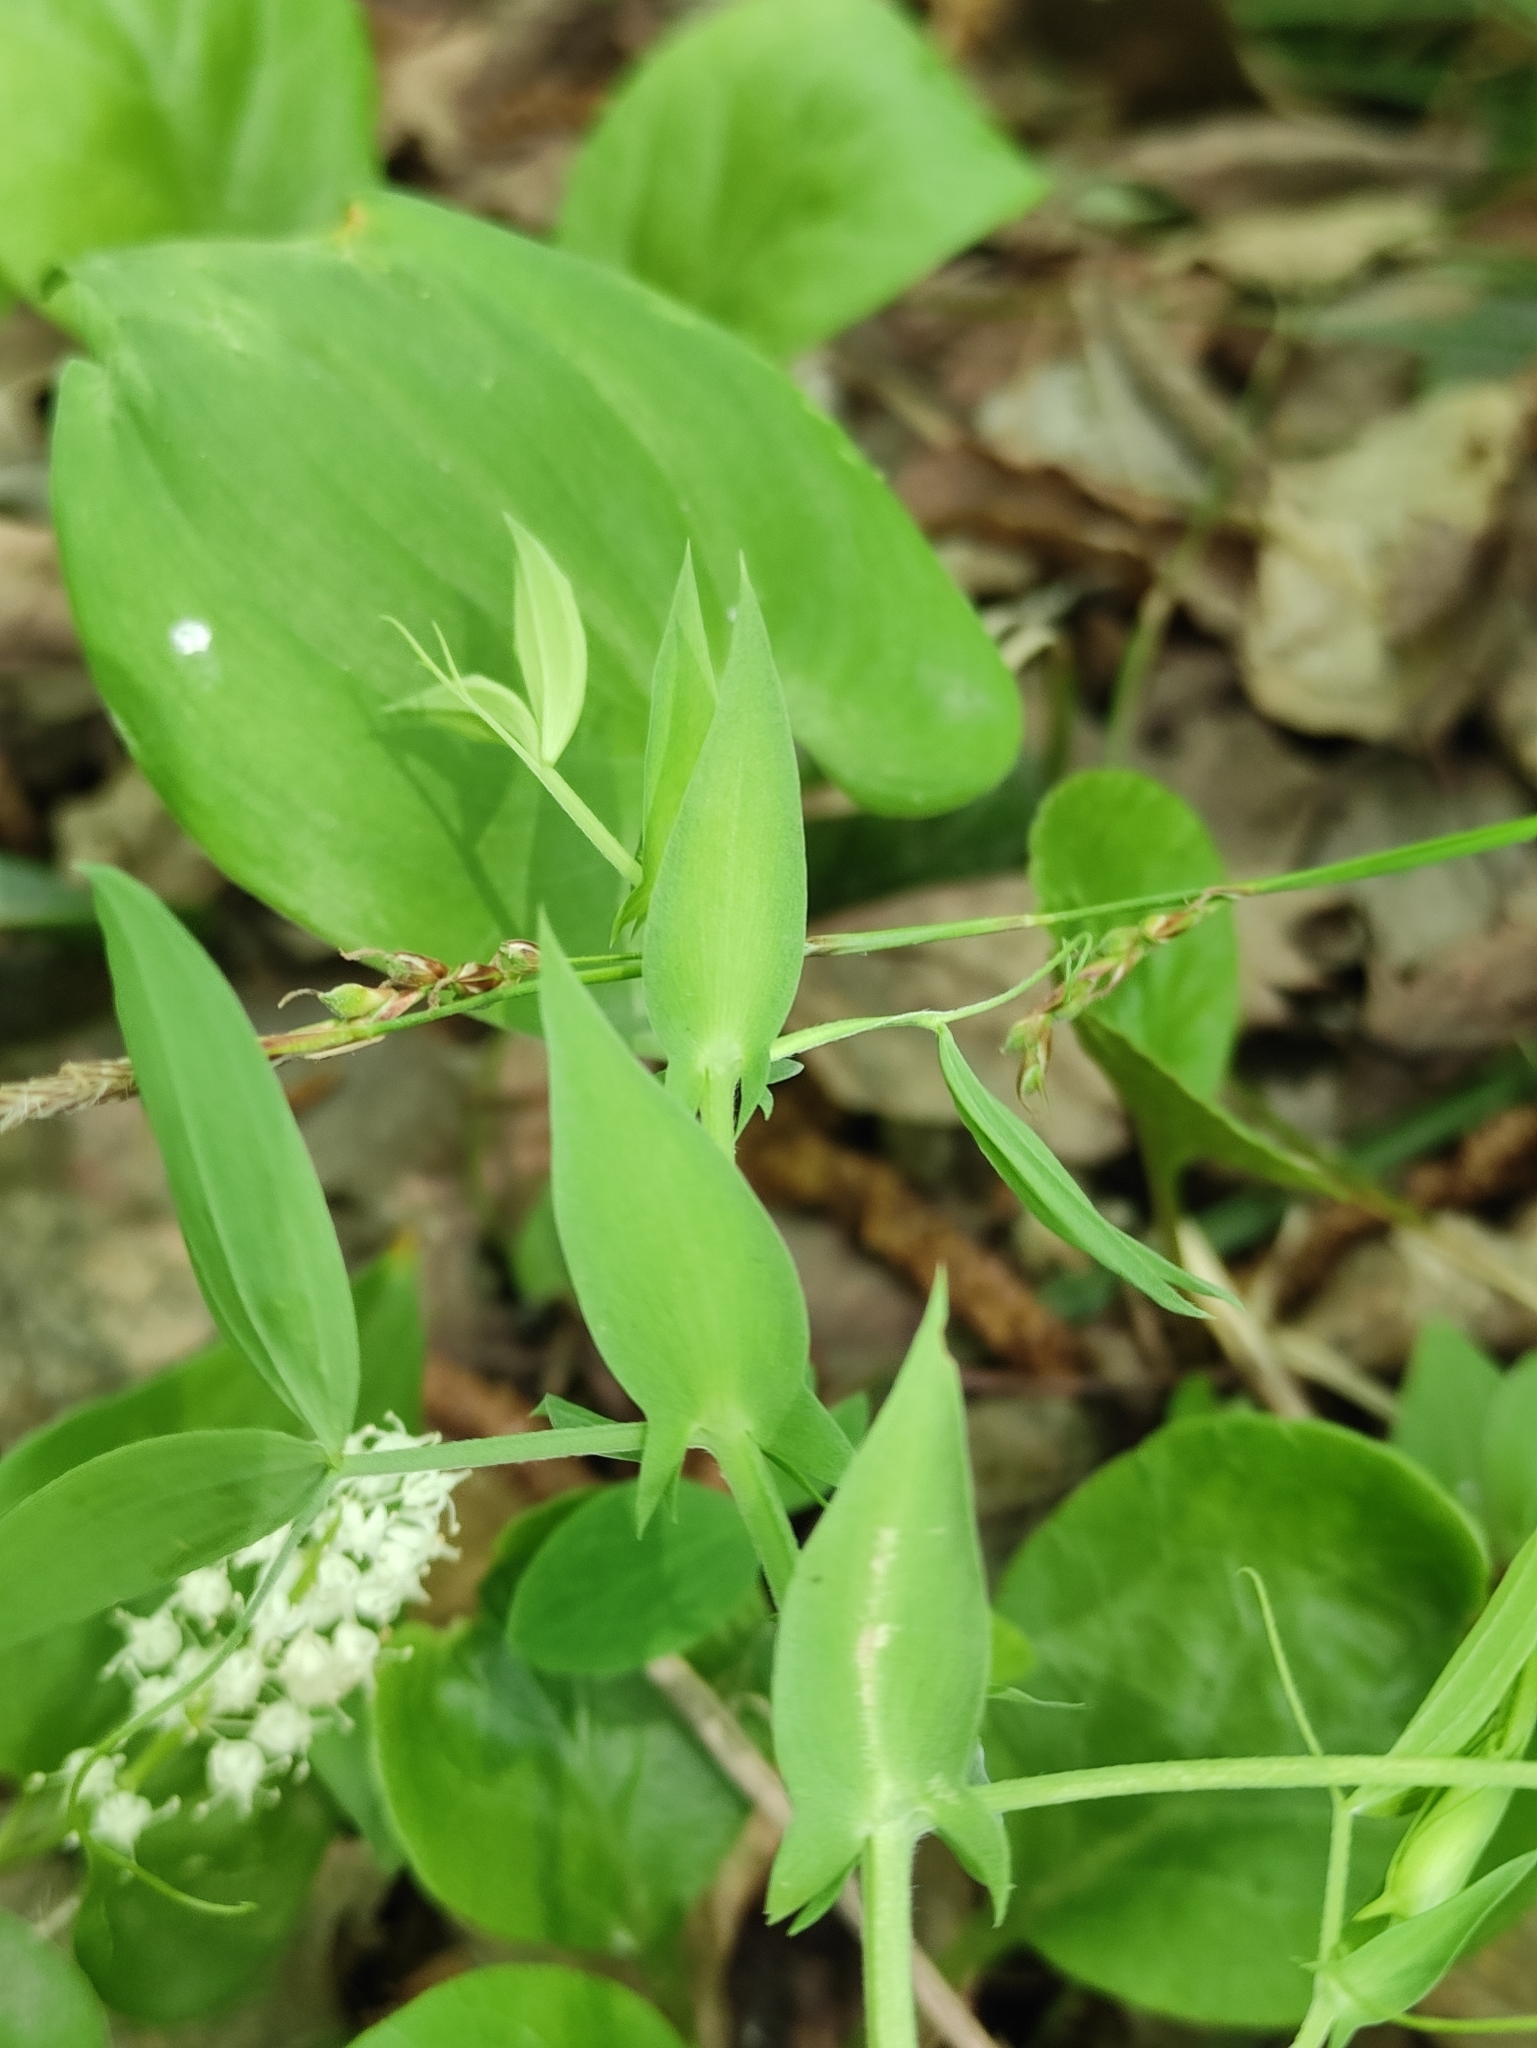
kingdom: Plantae
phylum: Tracheophyta
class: Magnoliopsida
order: Fabales
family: Fabaceae
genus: Lathyrus
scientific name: Lathyrus pratensis
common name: Meadow vetchling
